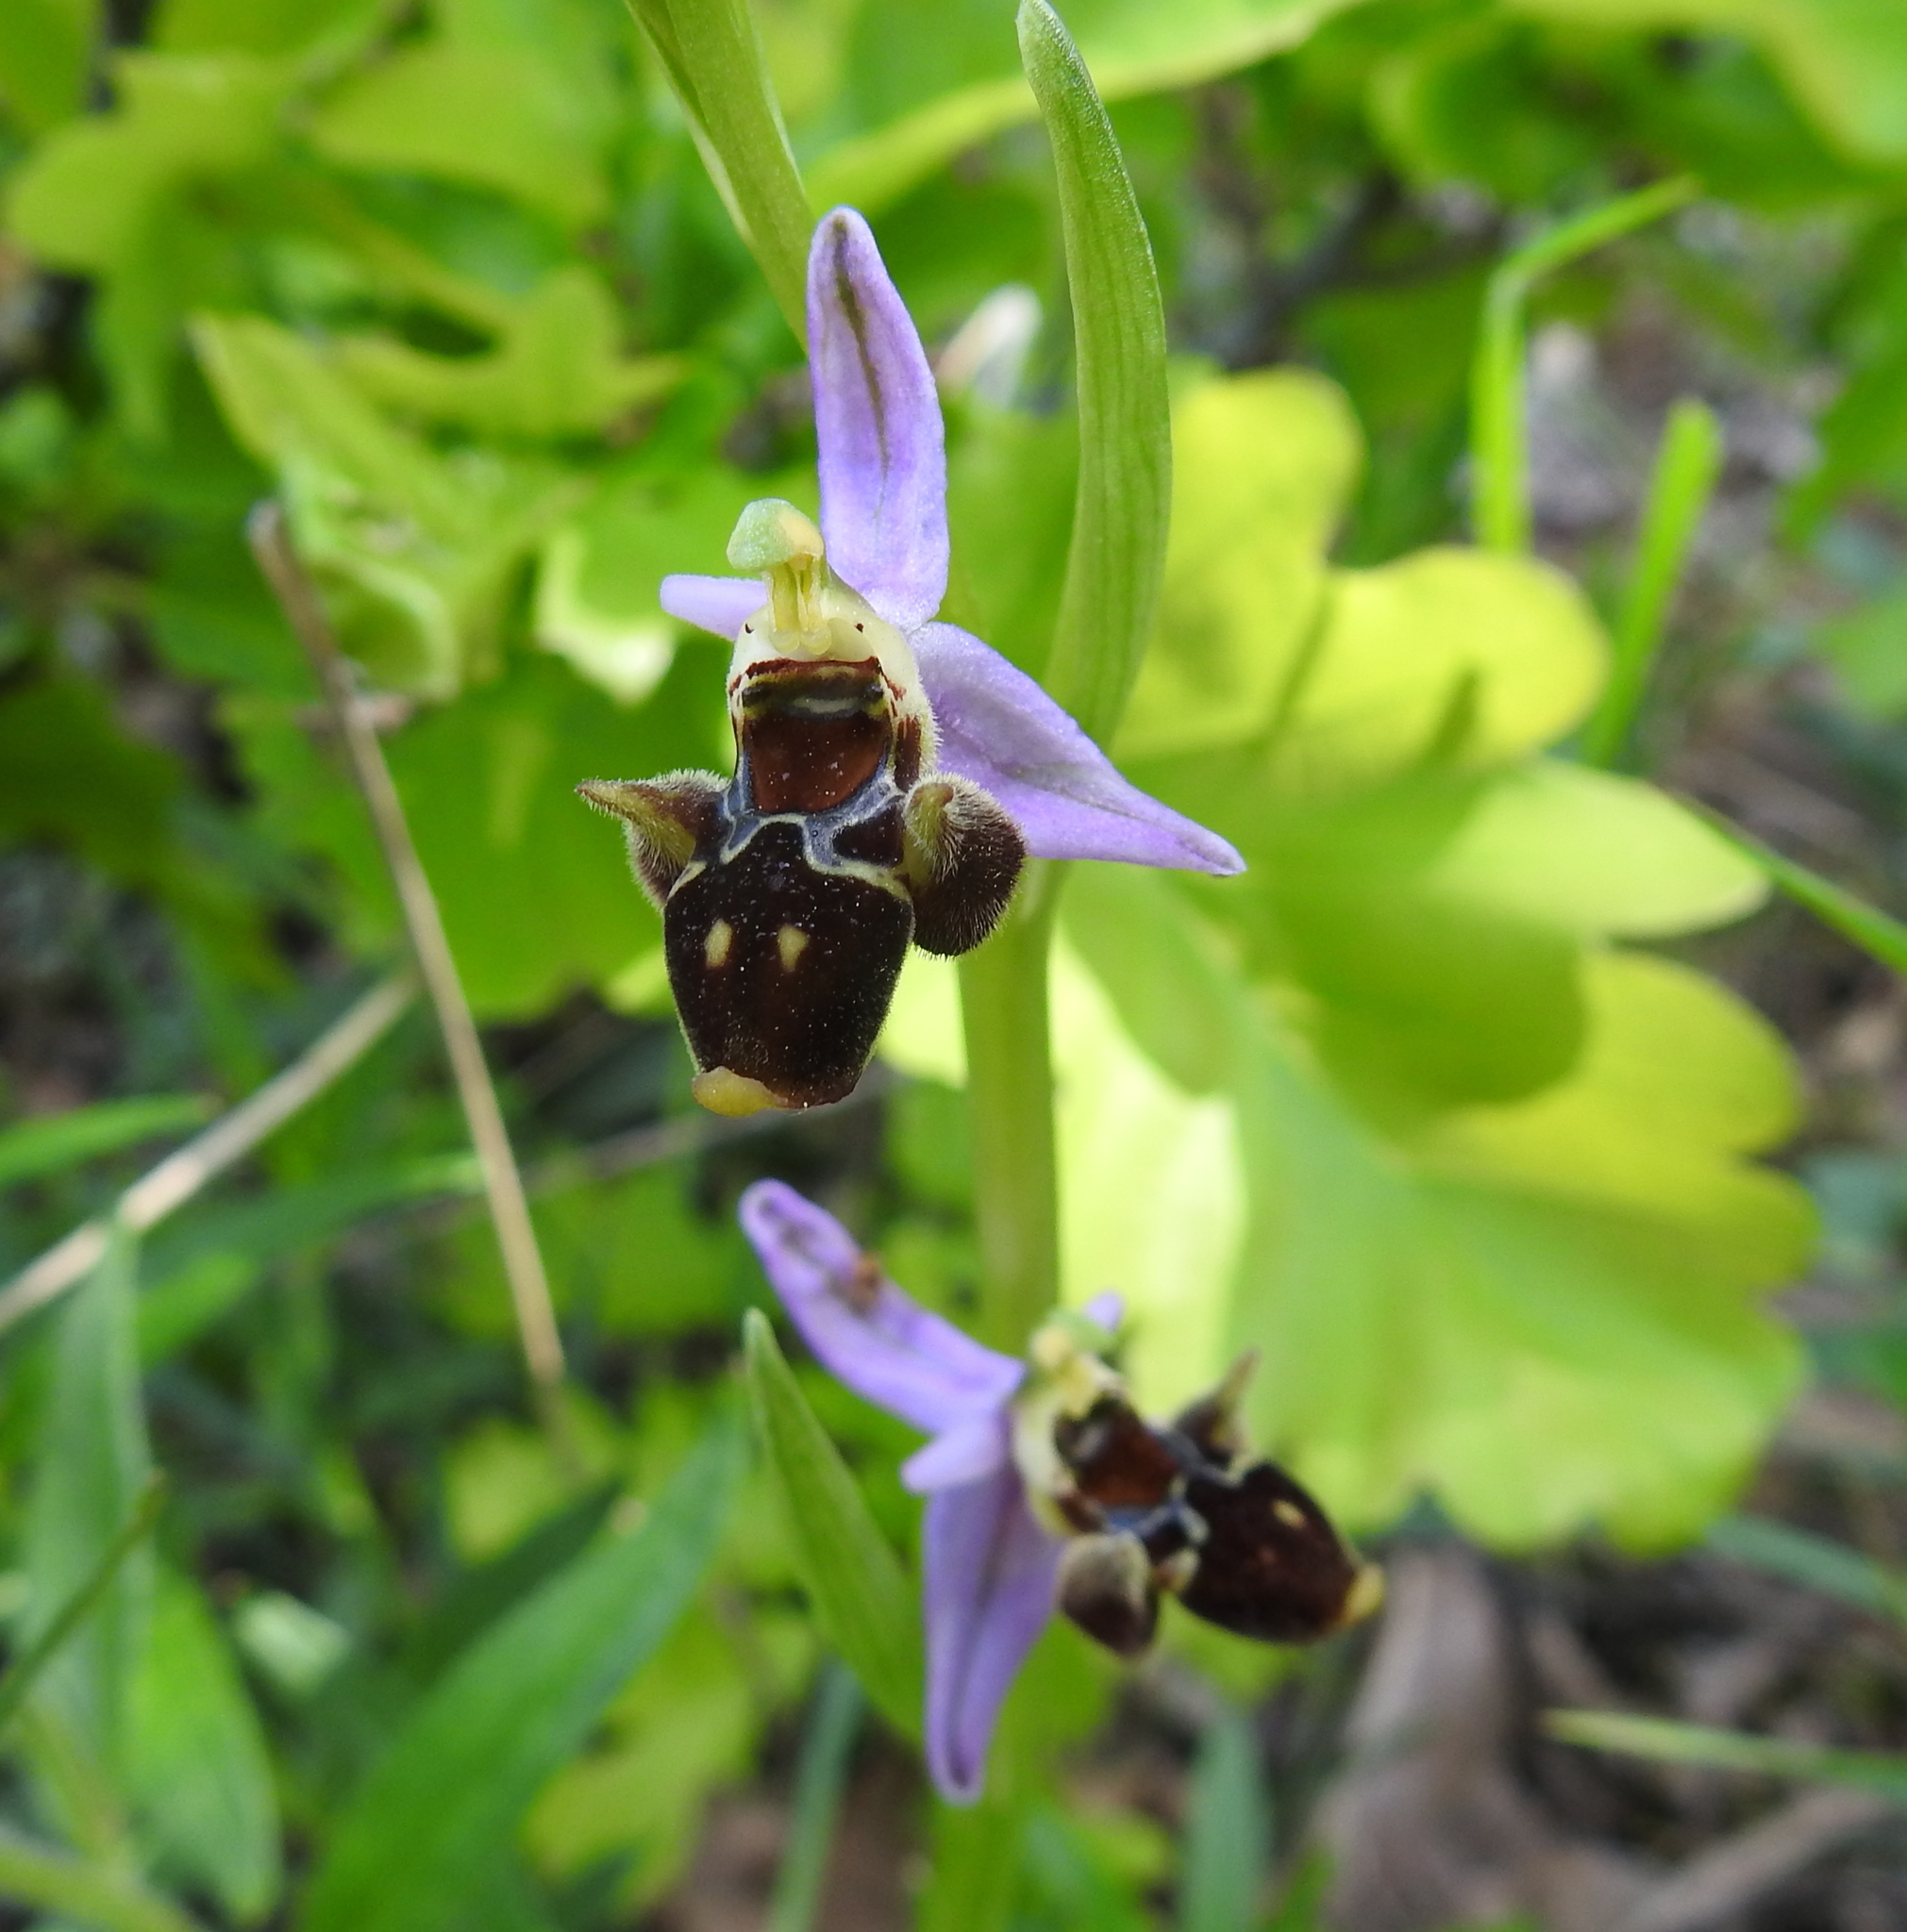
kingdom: Plantae
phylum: Tracheophyta
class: Liliopsida
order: Asparagales
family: Orchidaceae
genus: Ophrys
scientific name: Ophrys
